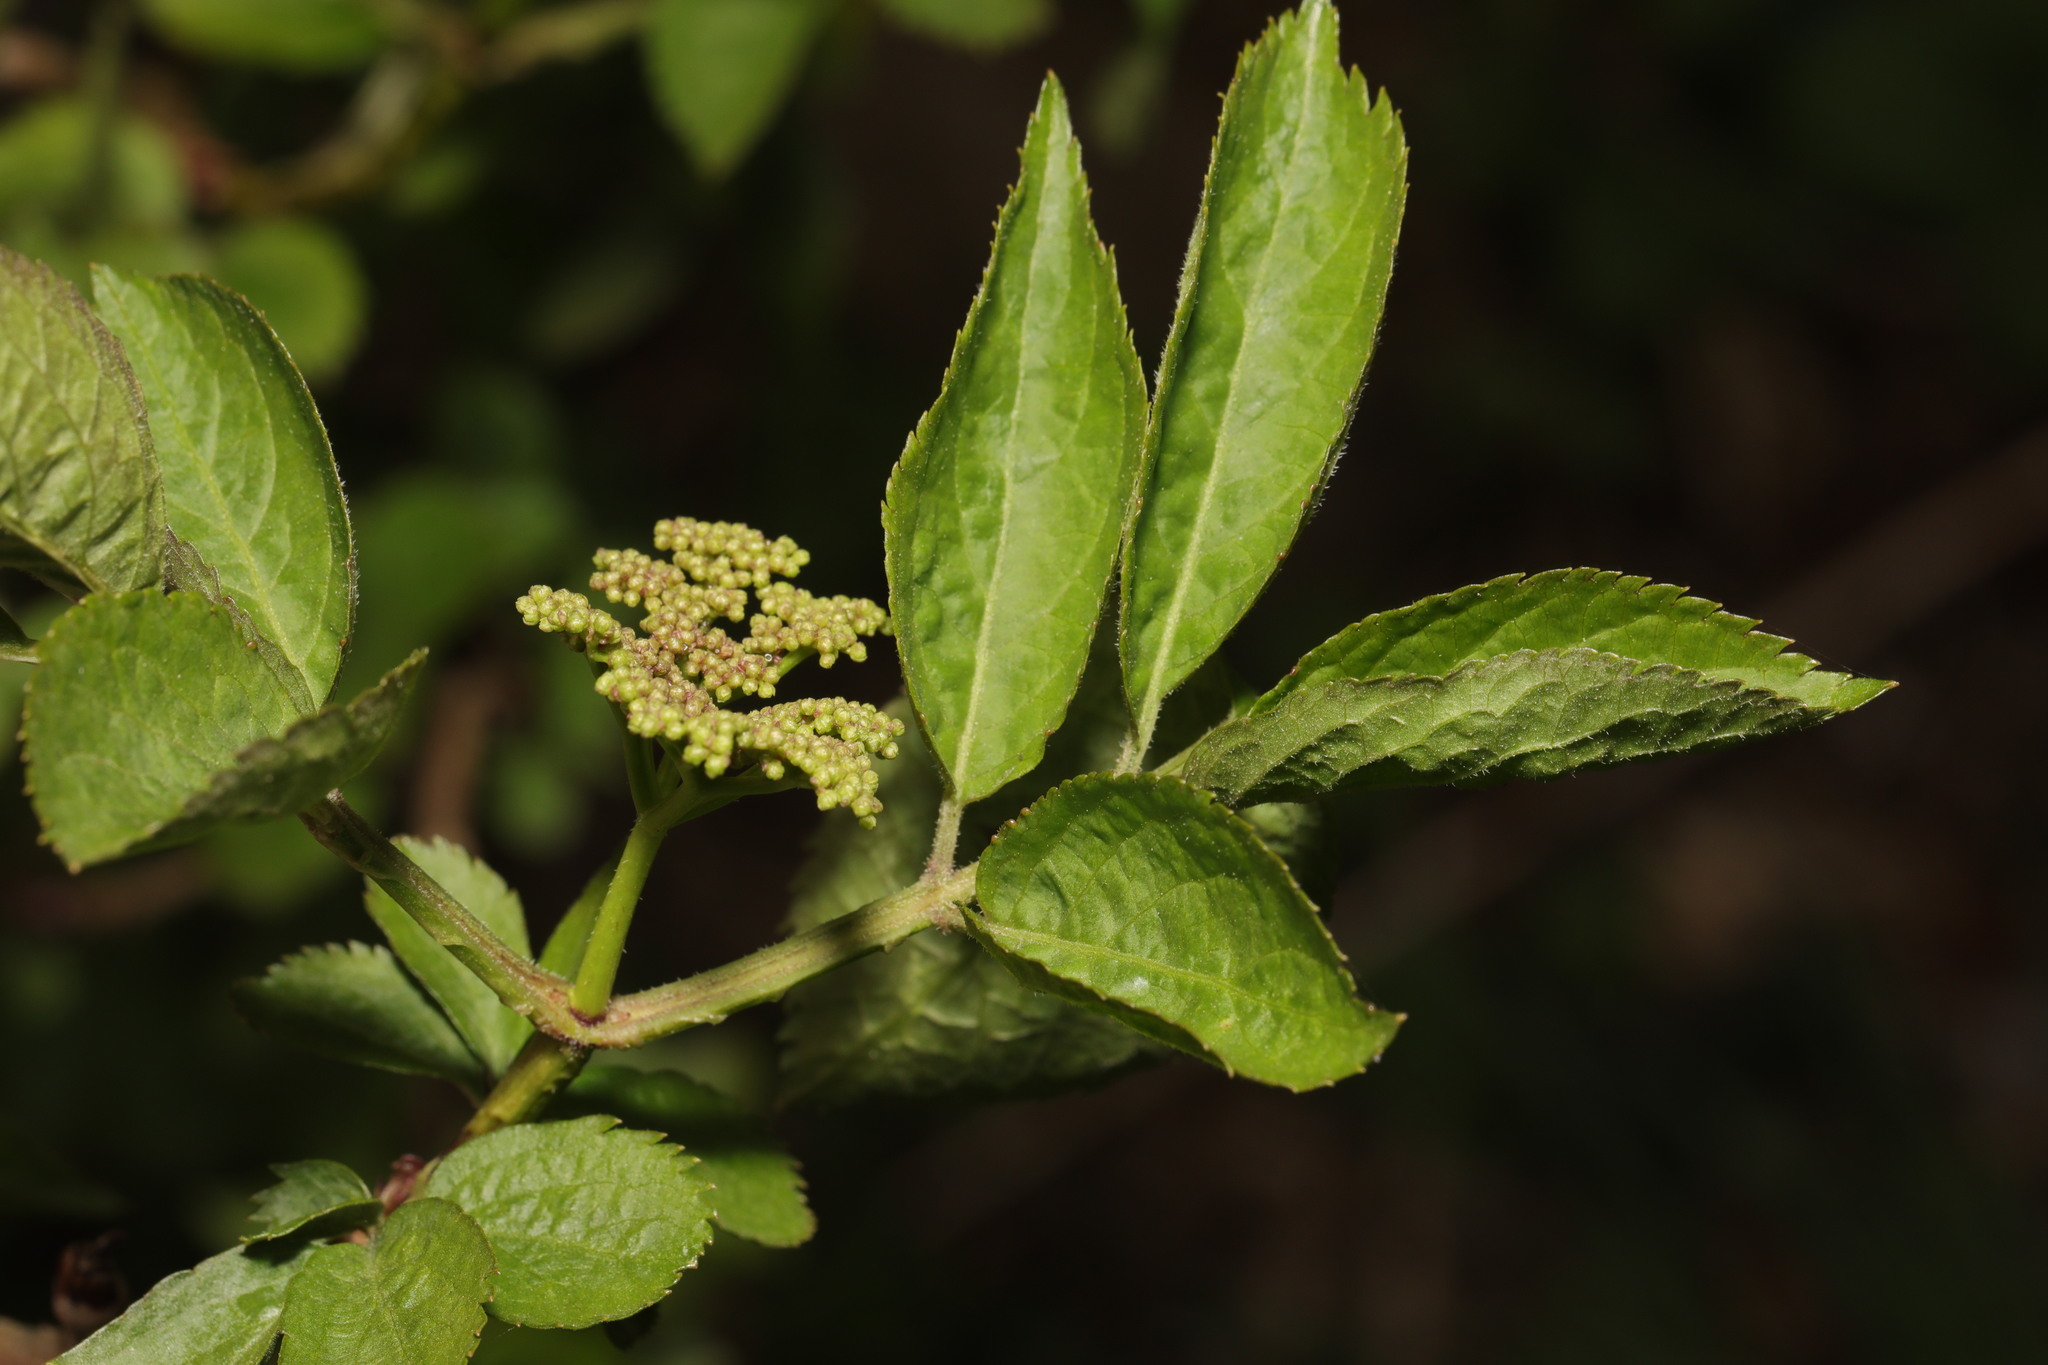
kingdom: Plantae
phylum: Tracheophyta
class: Magnoliopsida
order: Dipsacales
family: Viburnaceae
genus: Sambucus
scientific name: Sambucus nigra
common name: Elder
